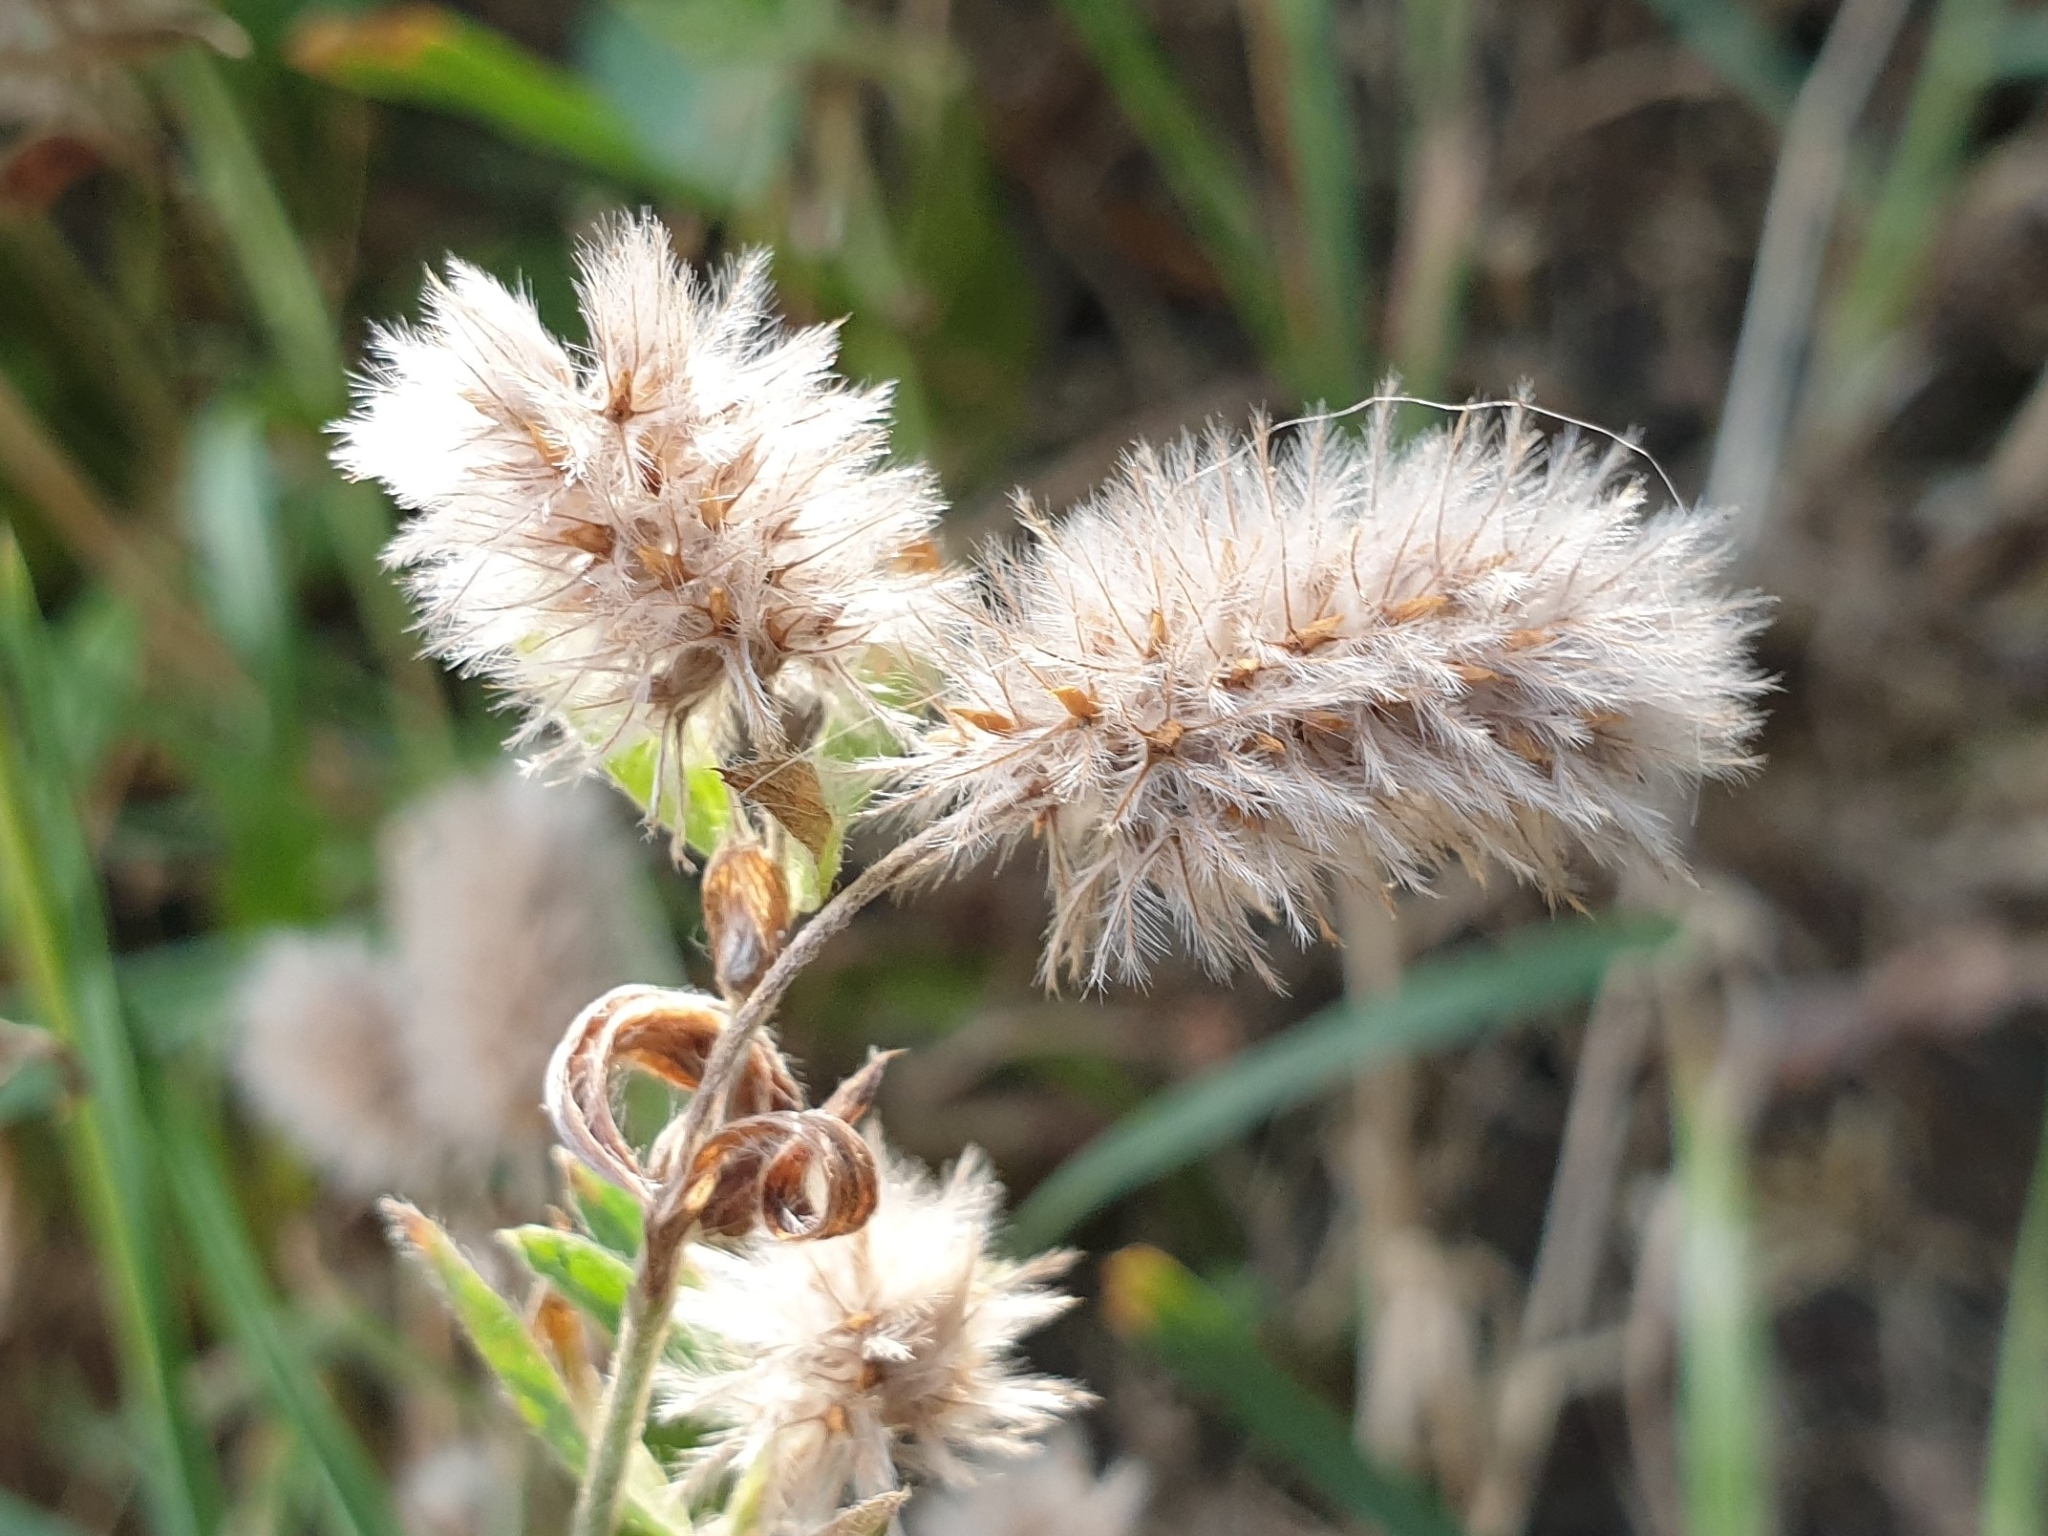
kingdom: Plantae
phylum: Tracheophyta
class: Magnoliopsida
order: Fabales
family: Fabaceae
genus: Trifolium
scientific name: Trifolium arvense
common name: Hare's-foot clover
